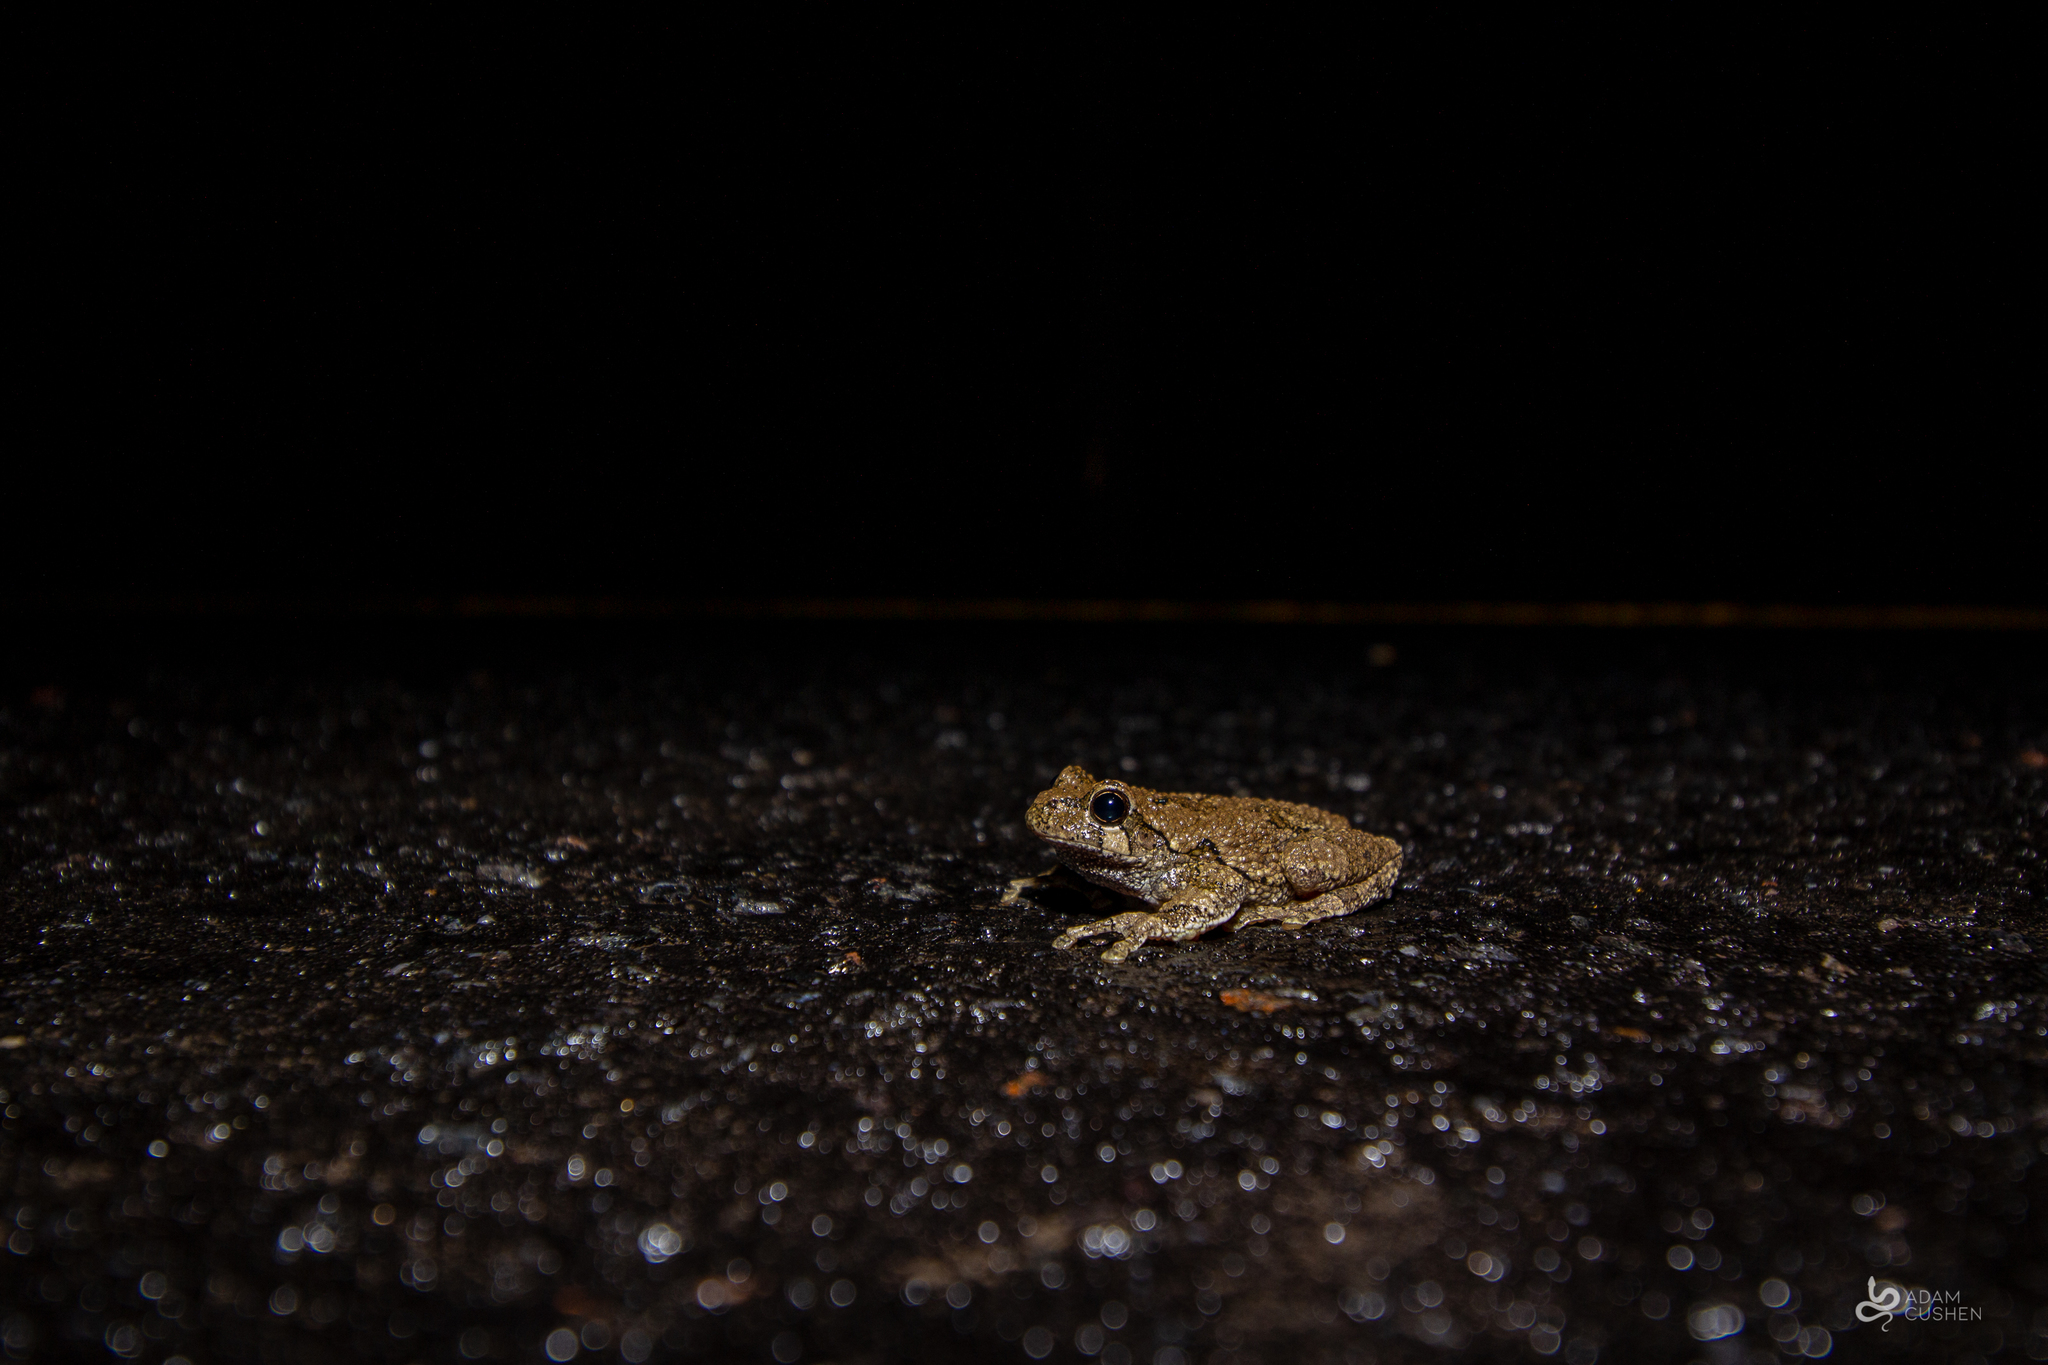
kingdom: Animalia
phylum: Chordata
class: Amphibia
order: Anura
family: Hylidae
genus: Dryophytes
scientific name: Dryophytes versicolor
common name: Gray treefrog
